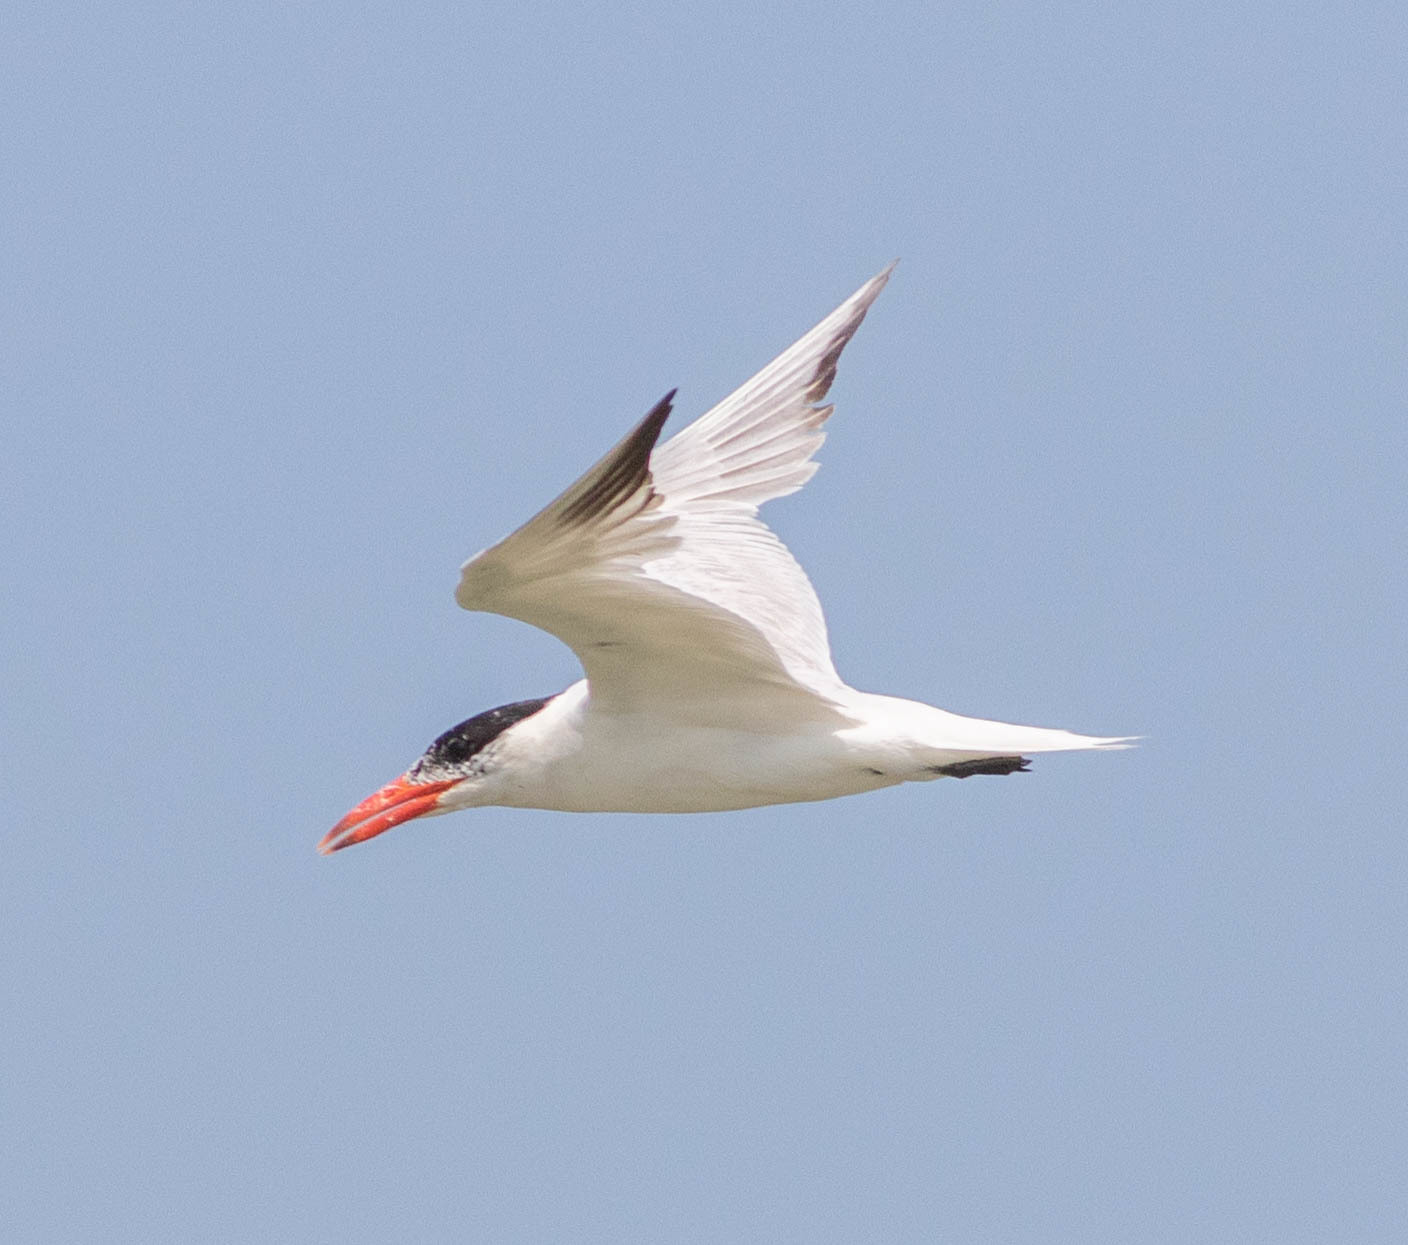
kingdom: Animalia
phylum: Chordata
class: Aves
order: Charadriiformes
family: Laridae
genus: Hydroprogne
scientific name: Hydroprogne caspia
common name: Caspian tern
